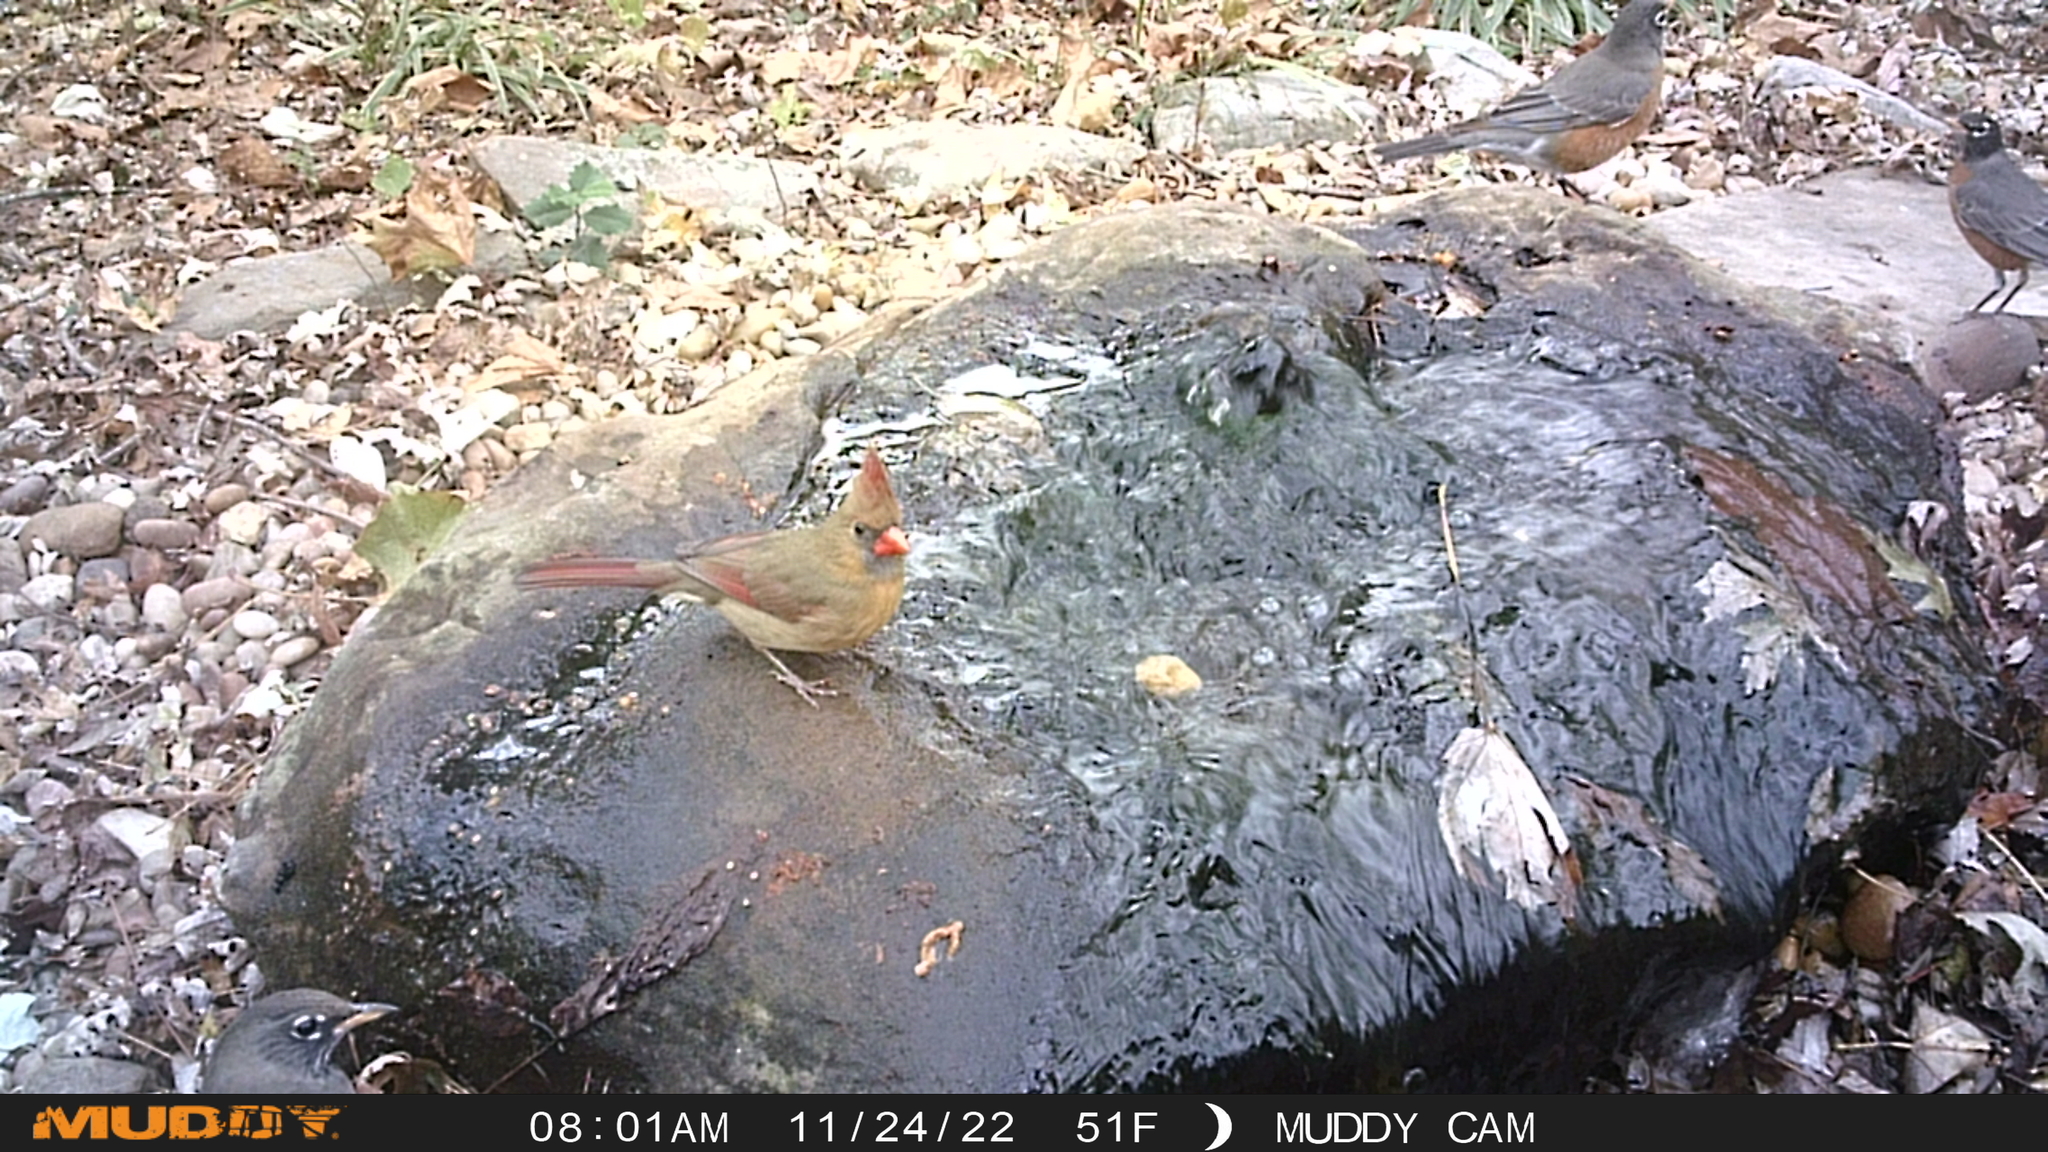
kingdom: Animalia
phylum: Chordata
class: Aves
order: Passeriformes
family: Cardinalidae
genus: Cardinalis
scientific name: Cardinalis cardinalis
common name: Northern cardinal
